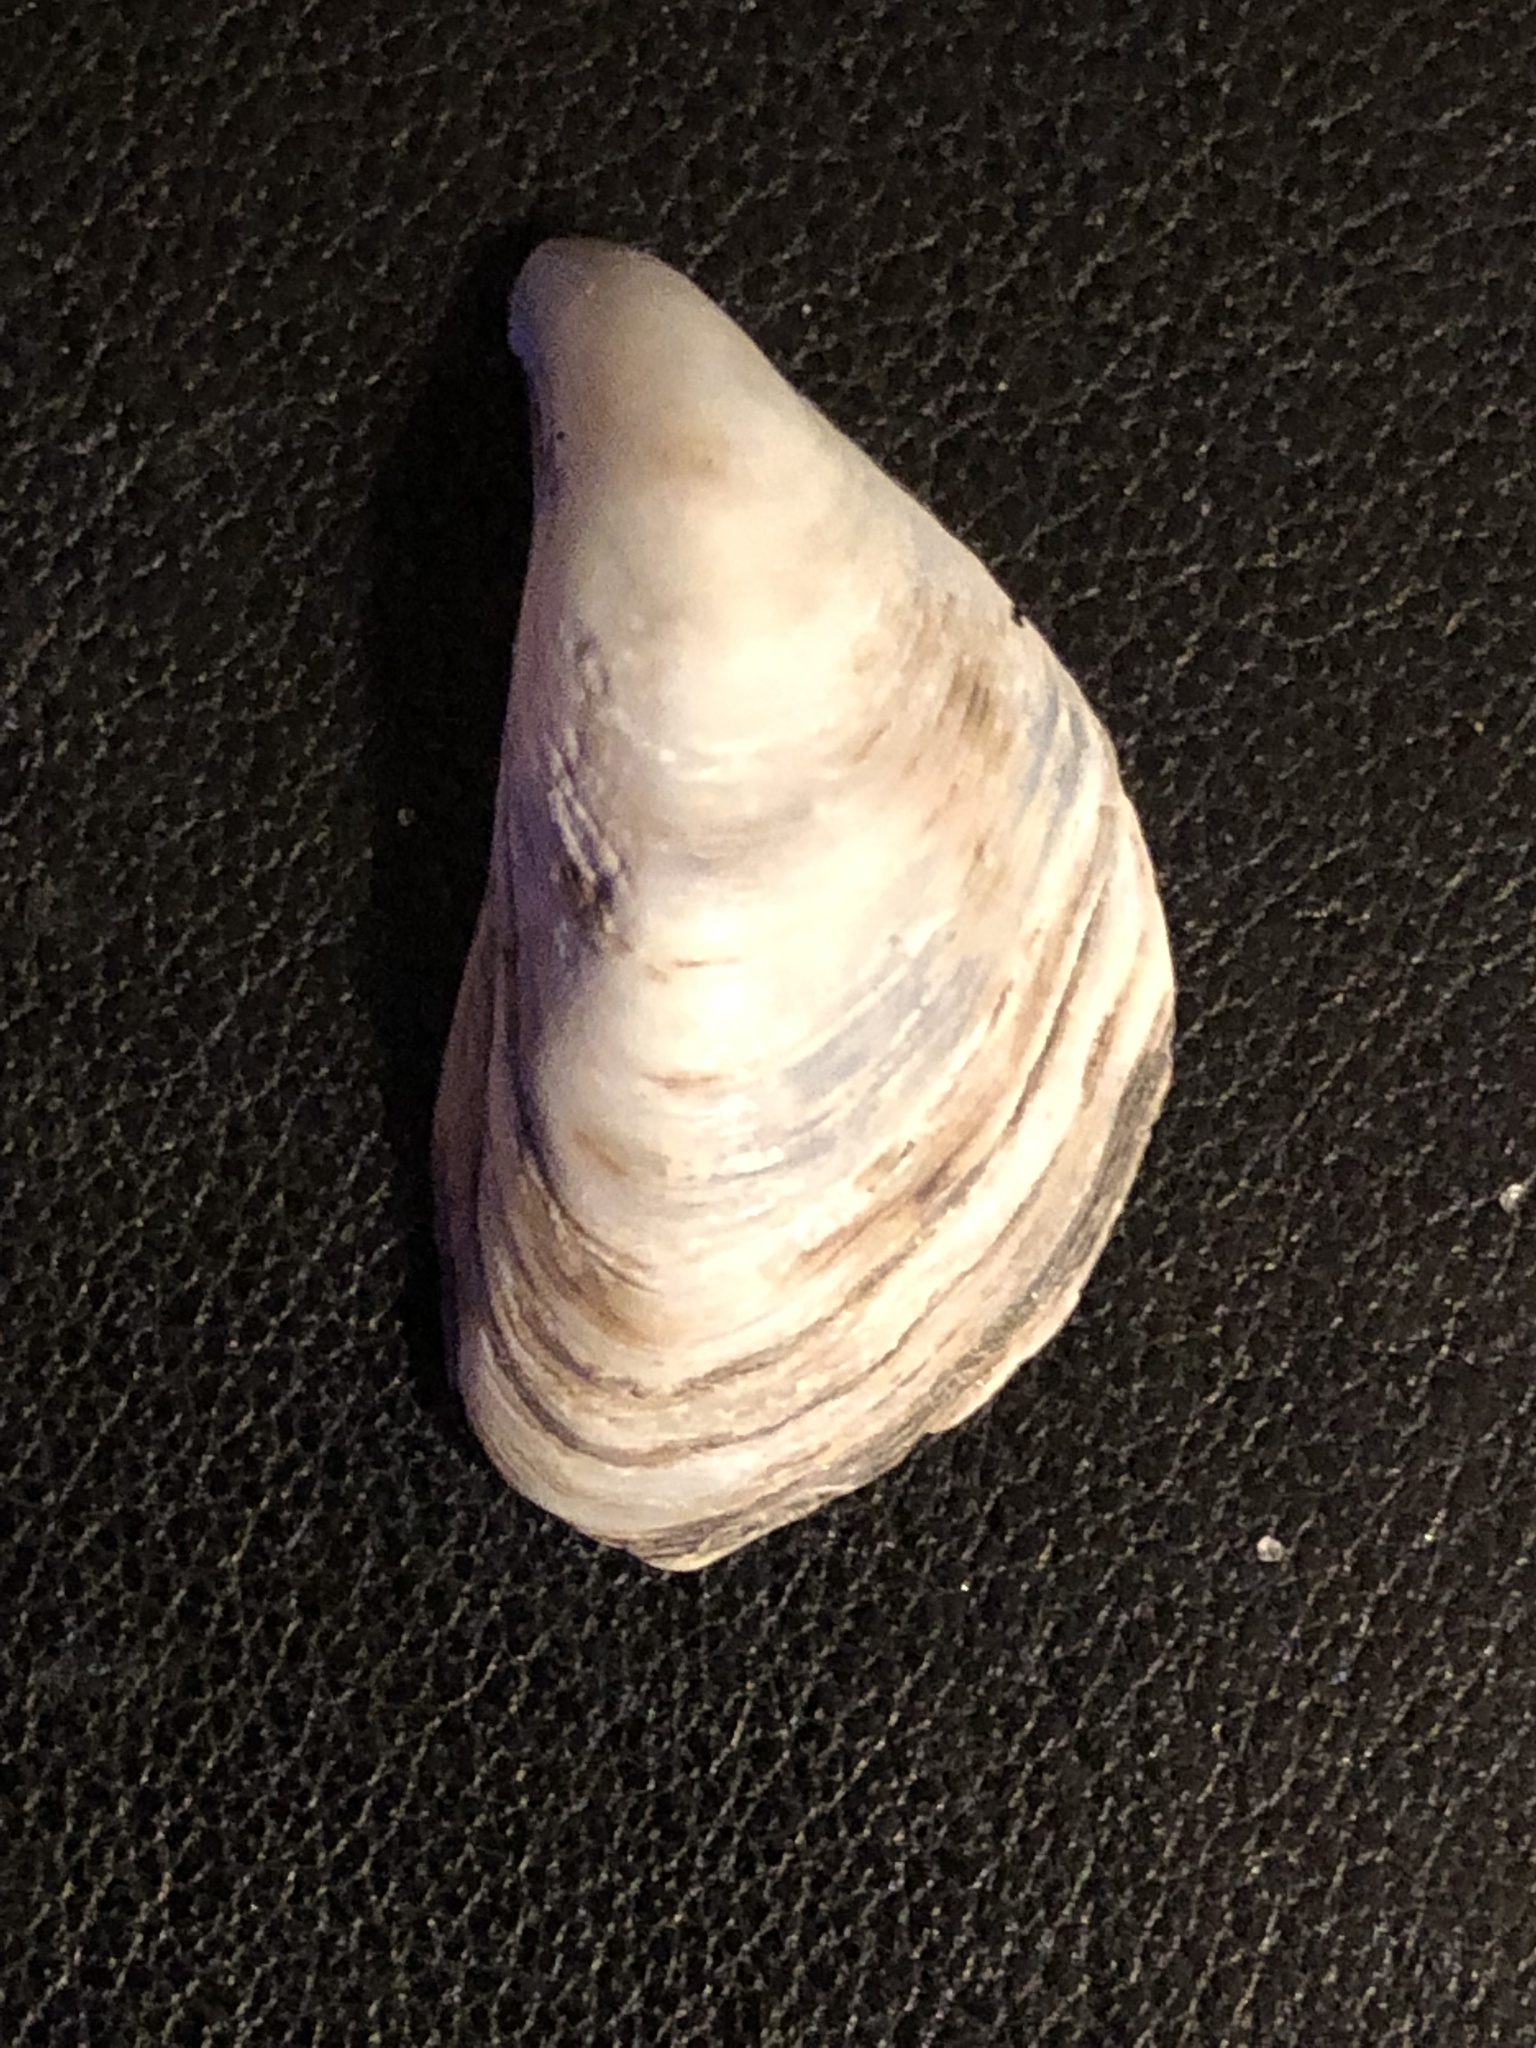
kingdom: Animalia
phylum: Mollusca
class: Bivalvia
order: Myida
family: Dreissenidae
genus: Dreissena
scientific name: Dreissena bugensis
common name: Quagga mussel
